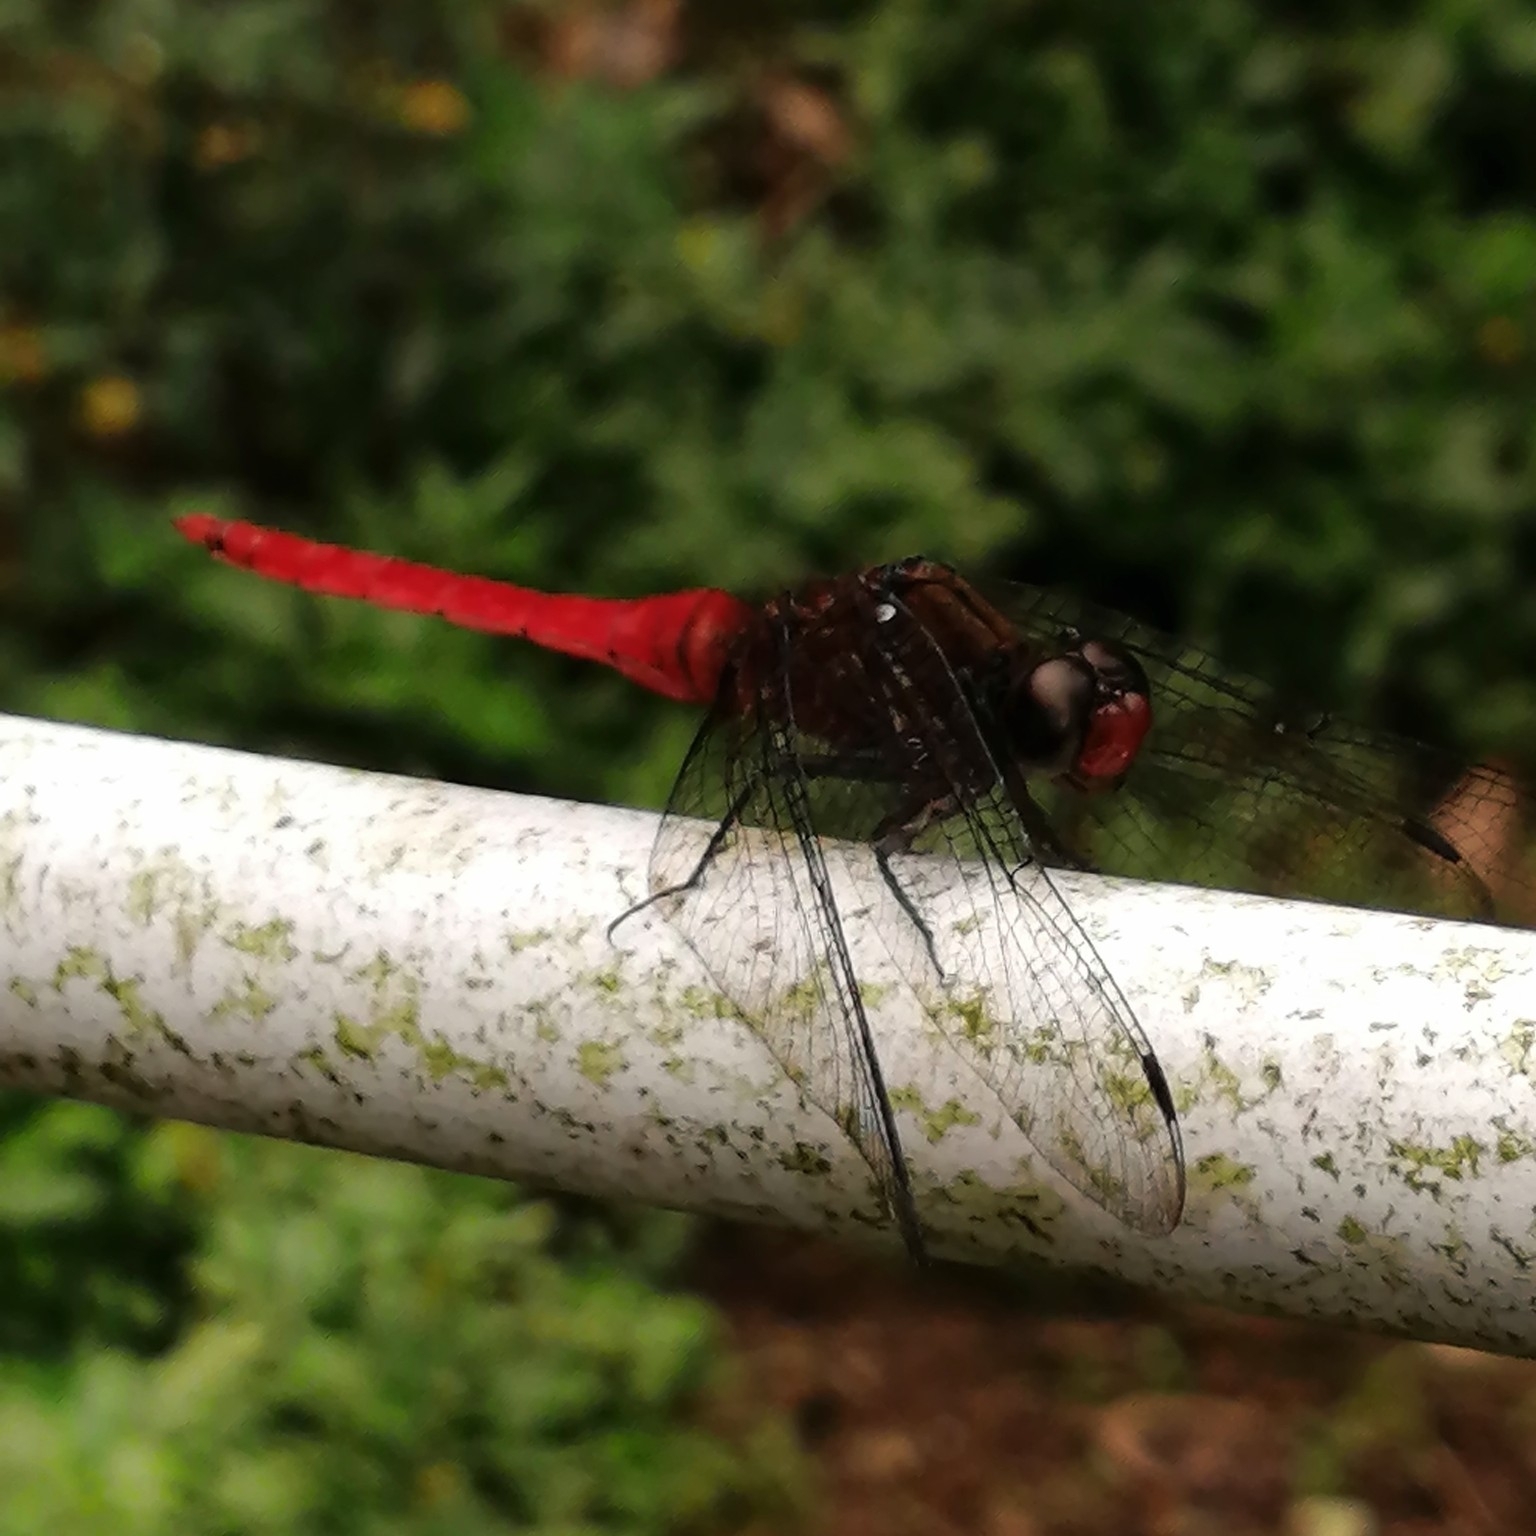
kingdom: Animalia
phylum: Arthropoda
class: Insecta
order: Odonata
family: Libellulidae
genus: Orthetrum
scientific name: Orthetrum chrysis
